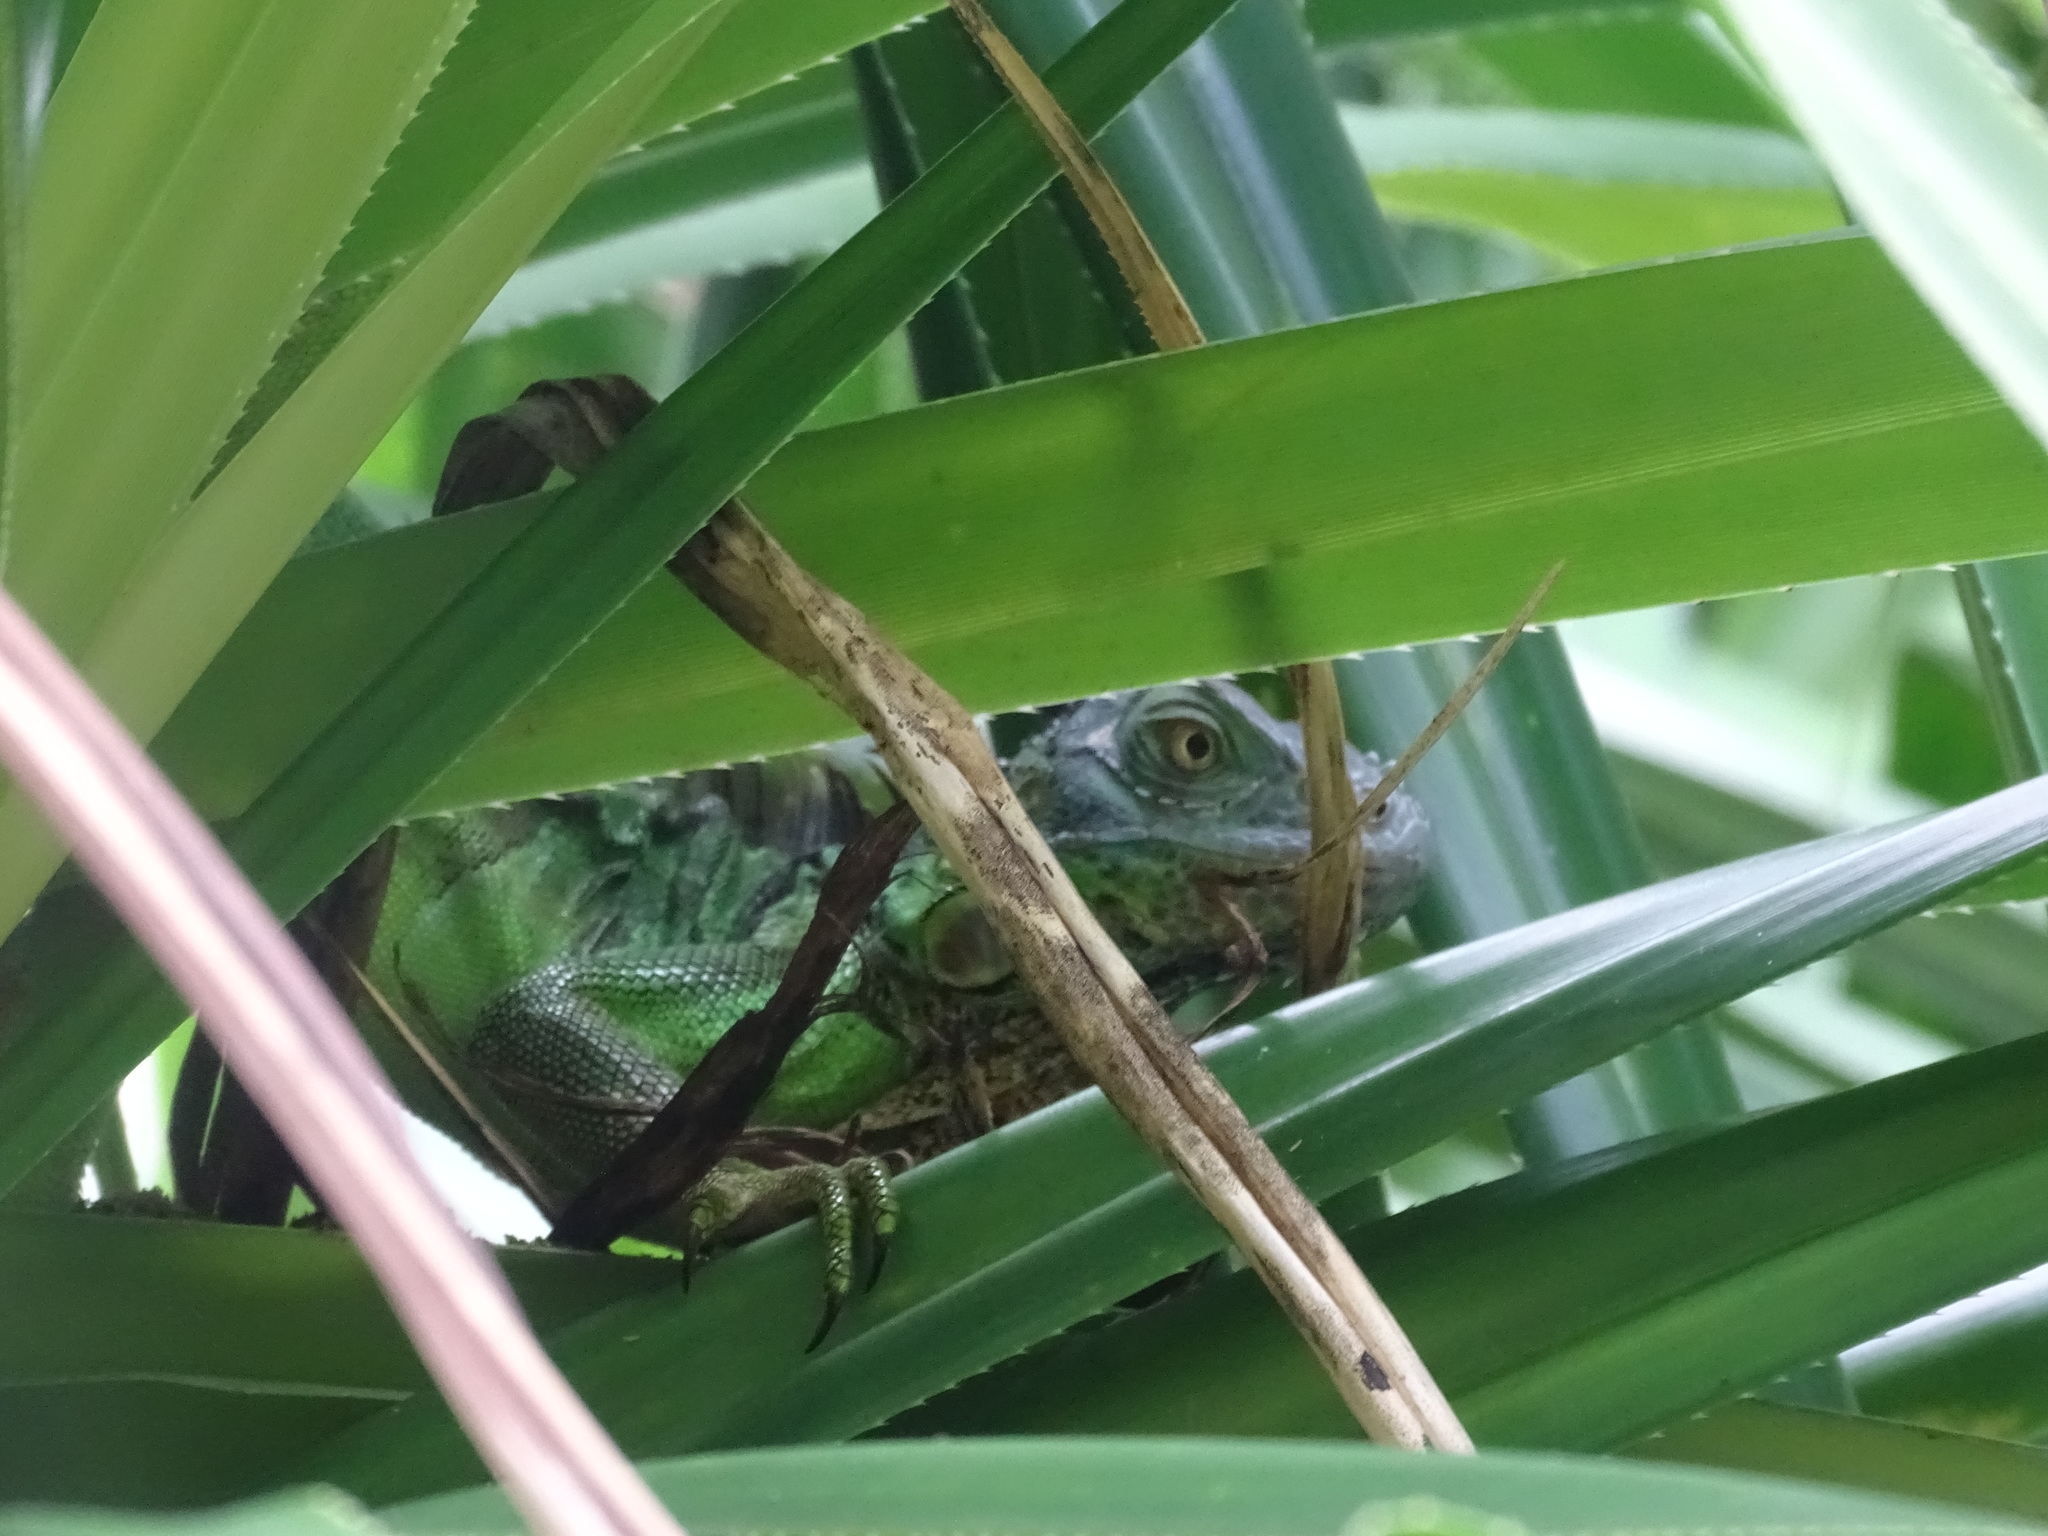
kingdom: Animalia
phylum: Chordata
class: Squamata
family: Iguanidae
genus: Iguana
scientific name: Iguana iguana
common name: Green iguana
